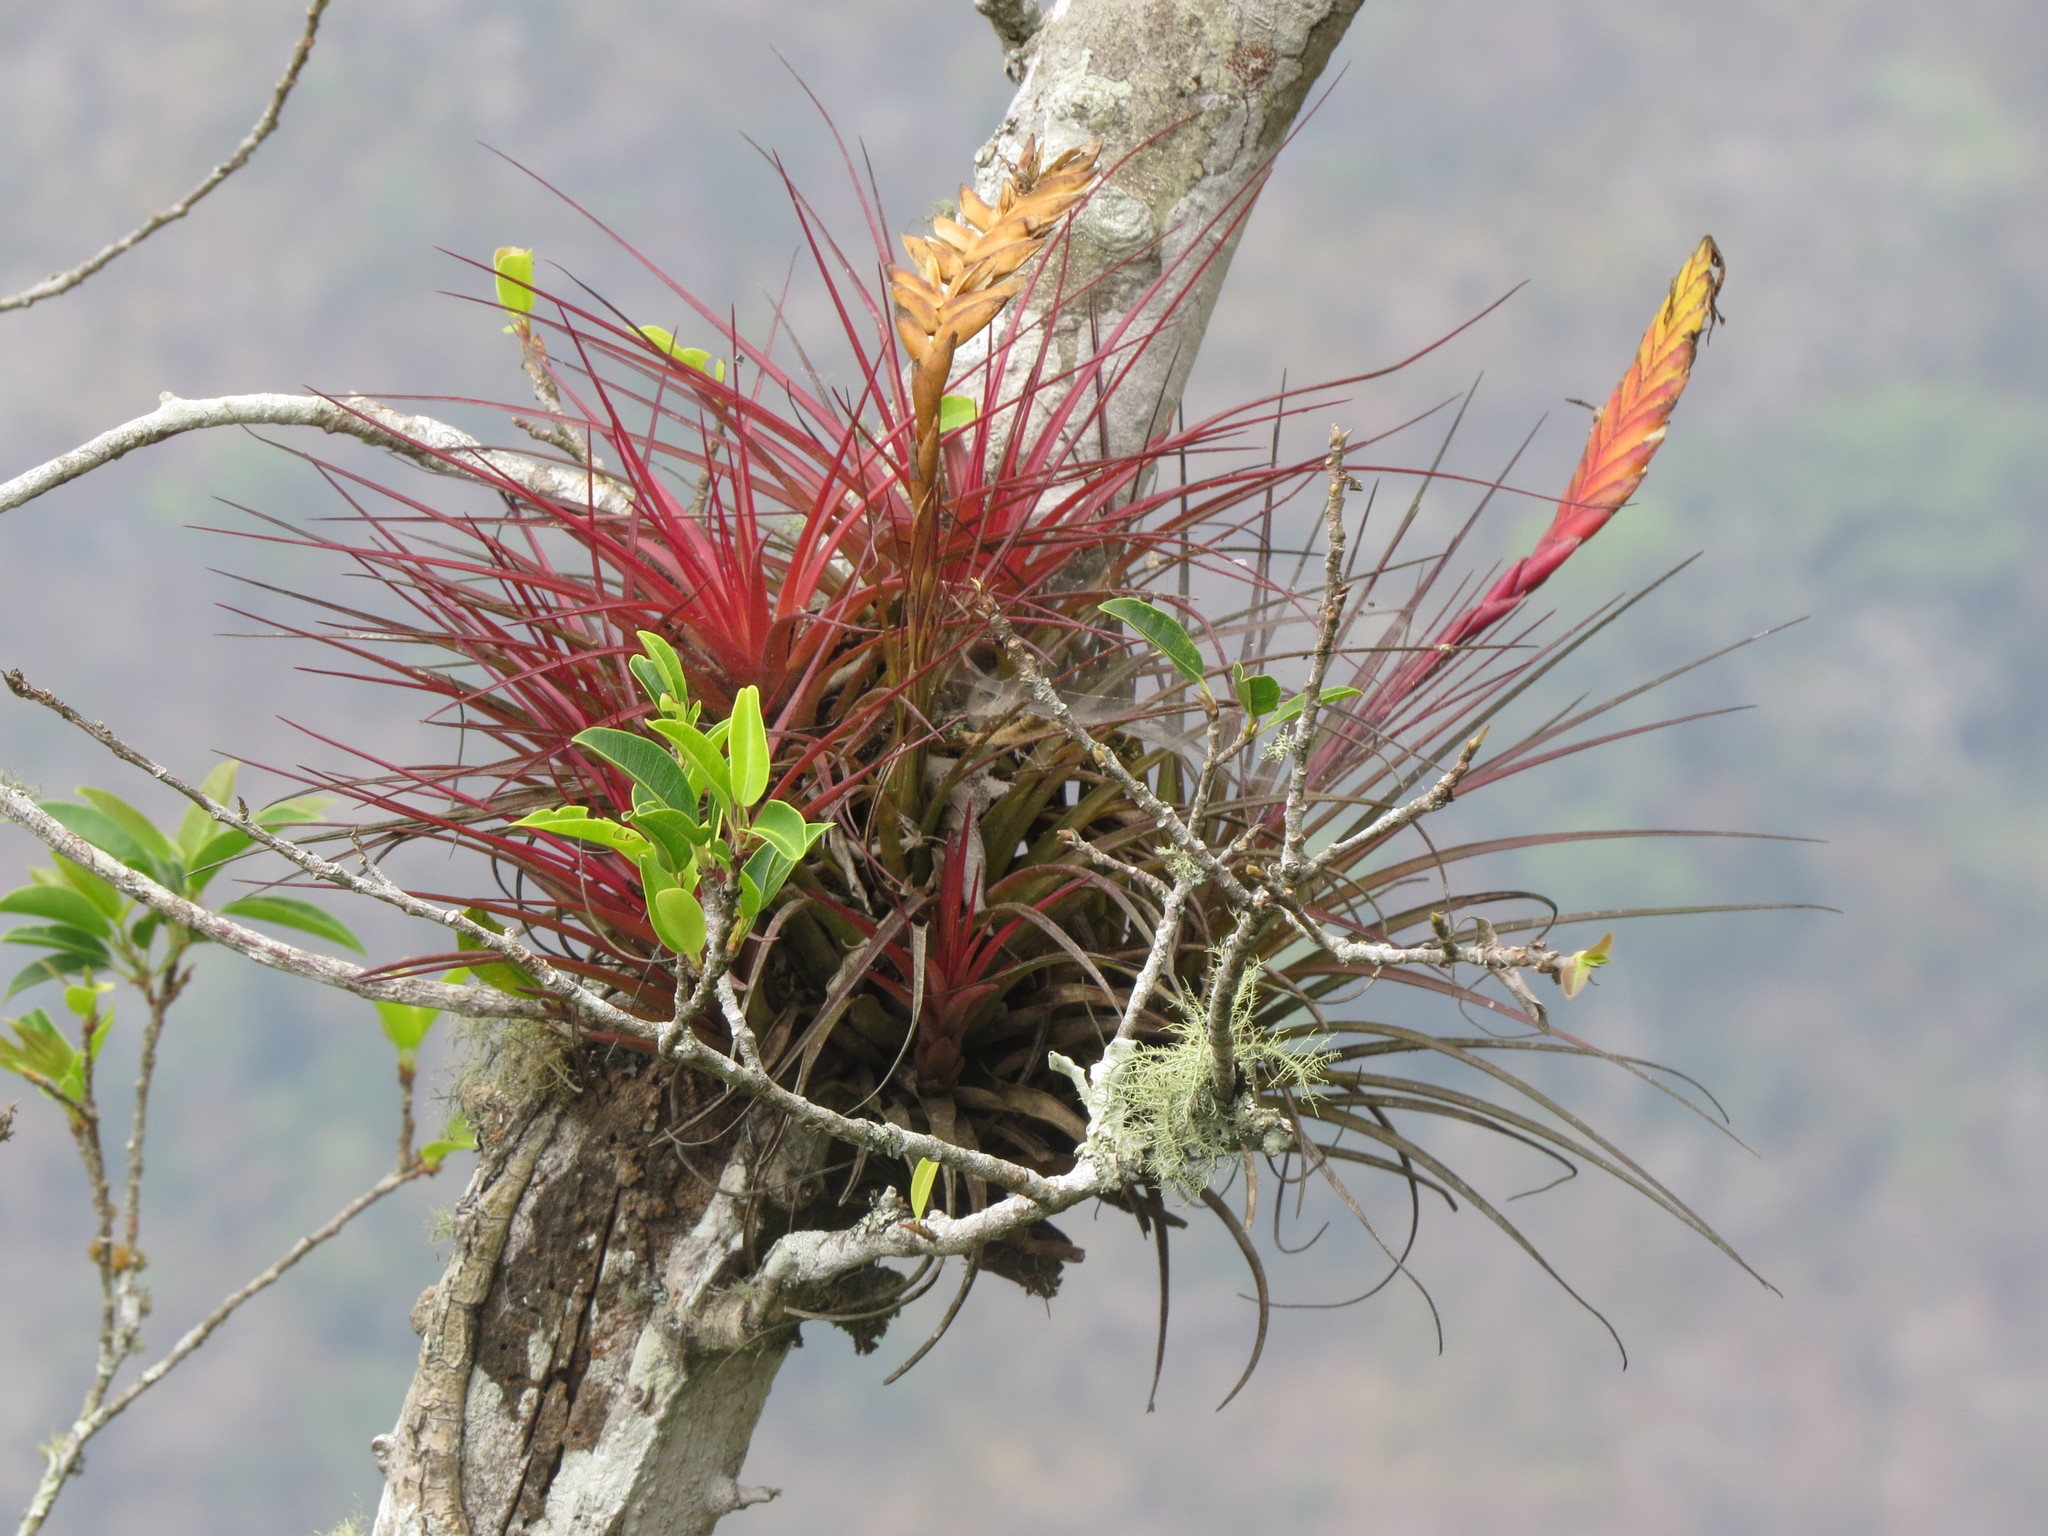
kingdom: Plantae
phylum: Tracheophyta
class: Liliopsida
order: Poales
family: Bromeliaceae
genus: Tillandsia
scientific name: Tillandsia tricolor
